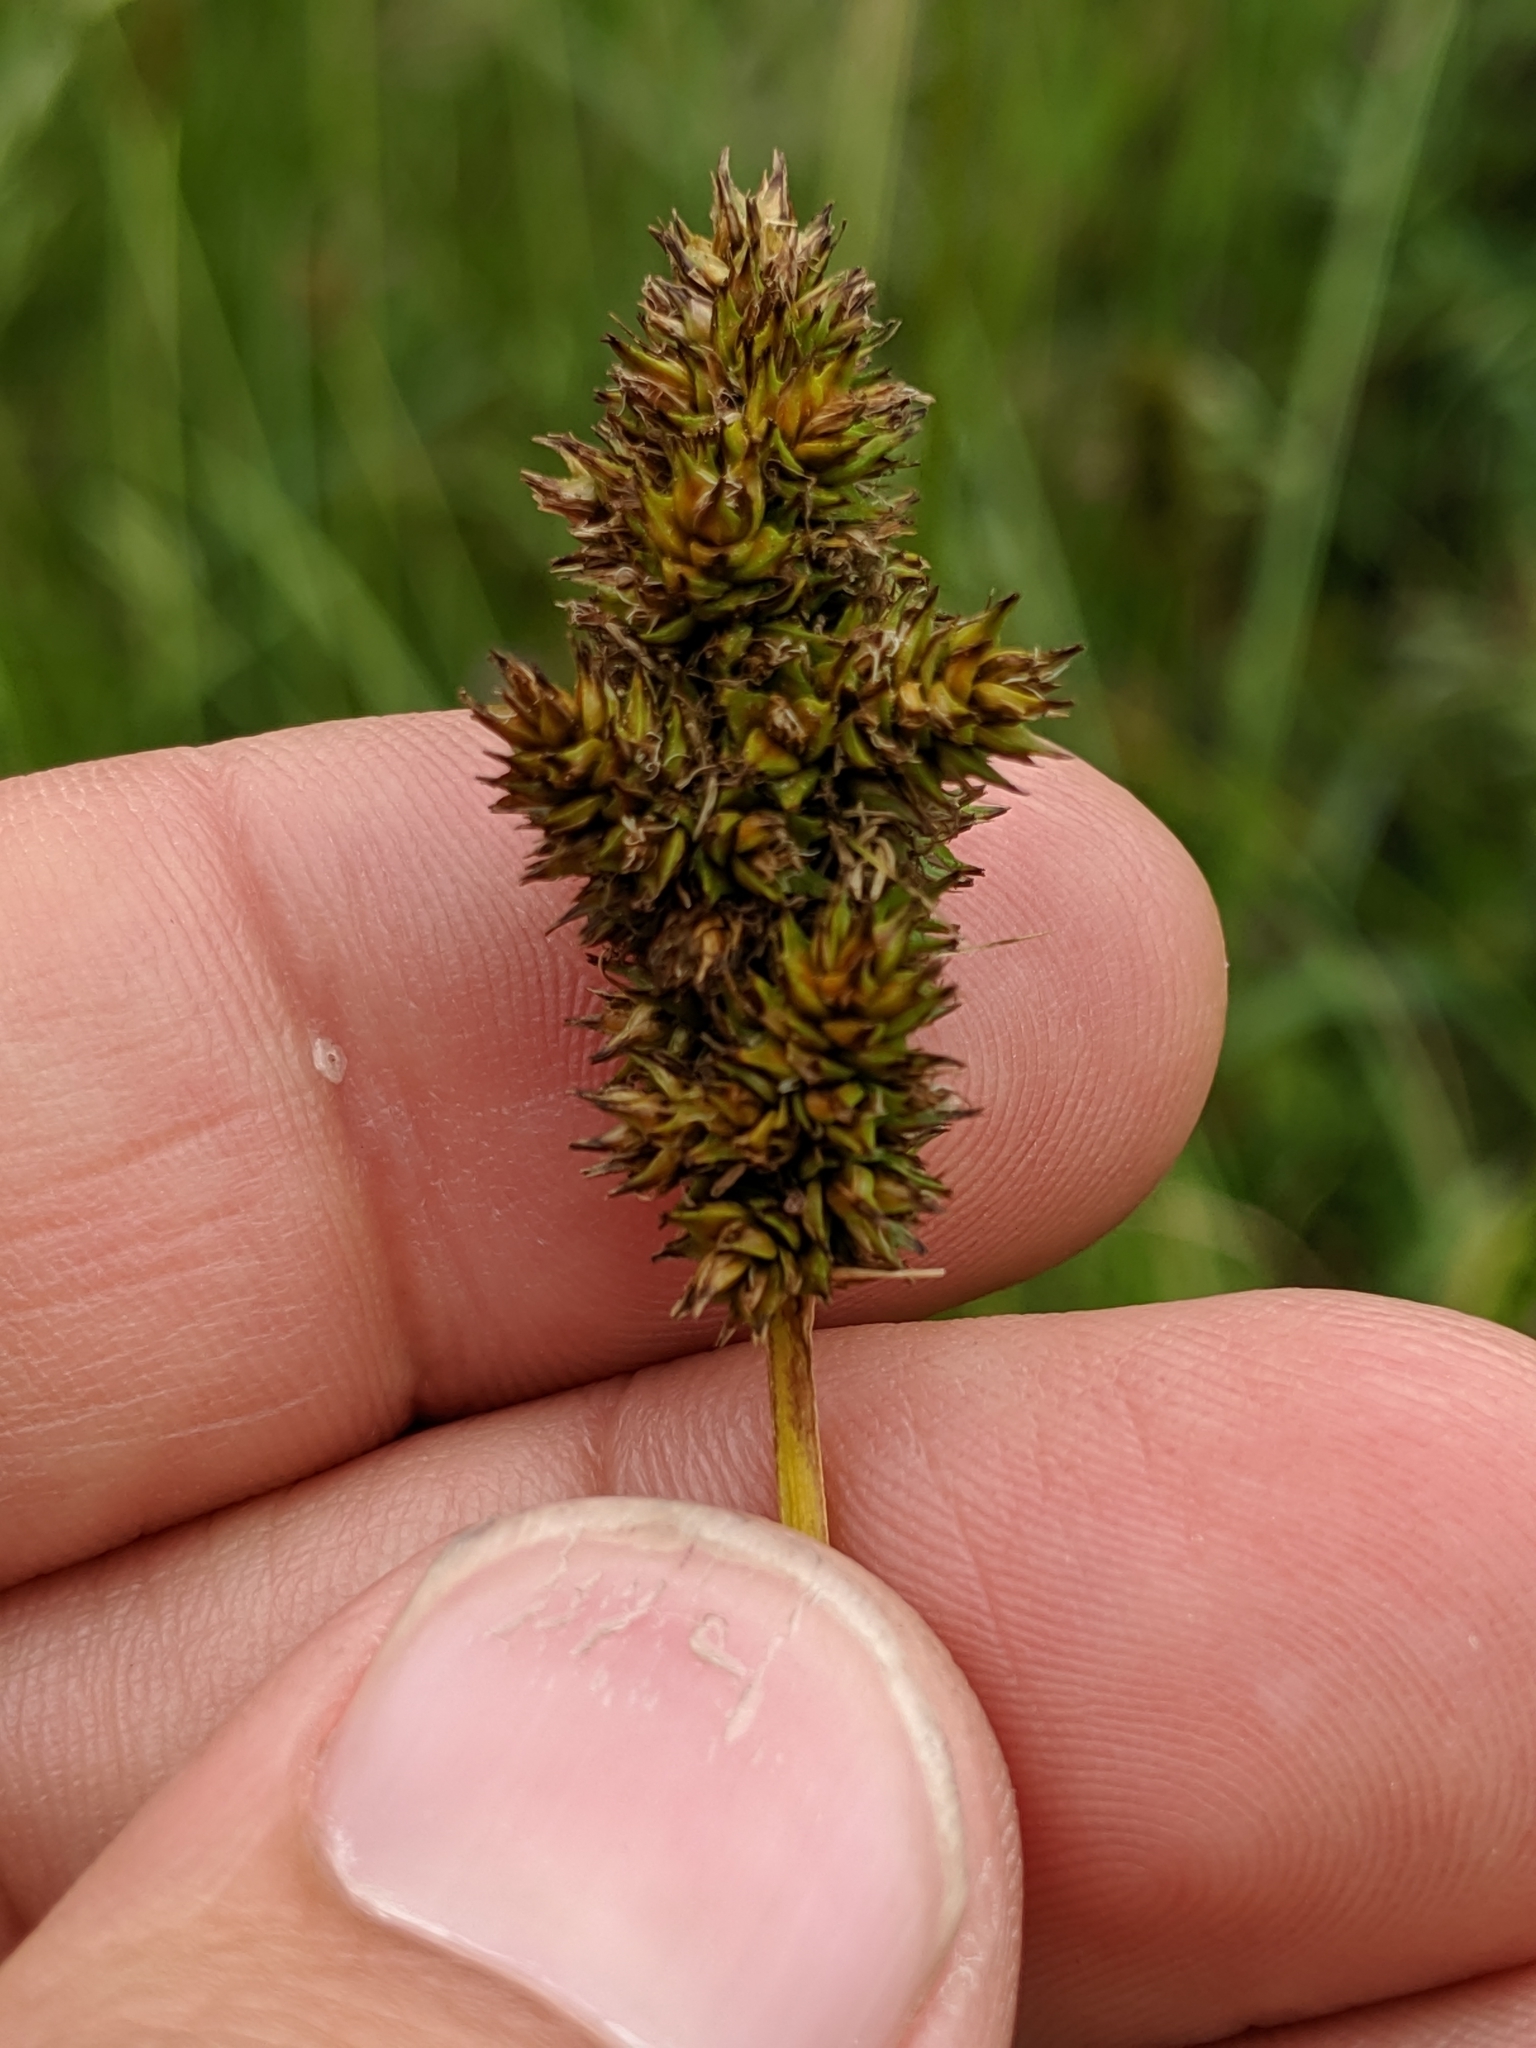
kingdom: Plantae
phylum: Tracheophyta
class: Liliopsida
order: Poales
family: Cyperaceae
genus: Carex
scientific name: Carex densa
